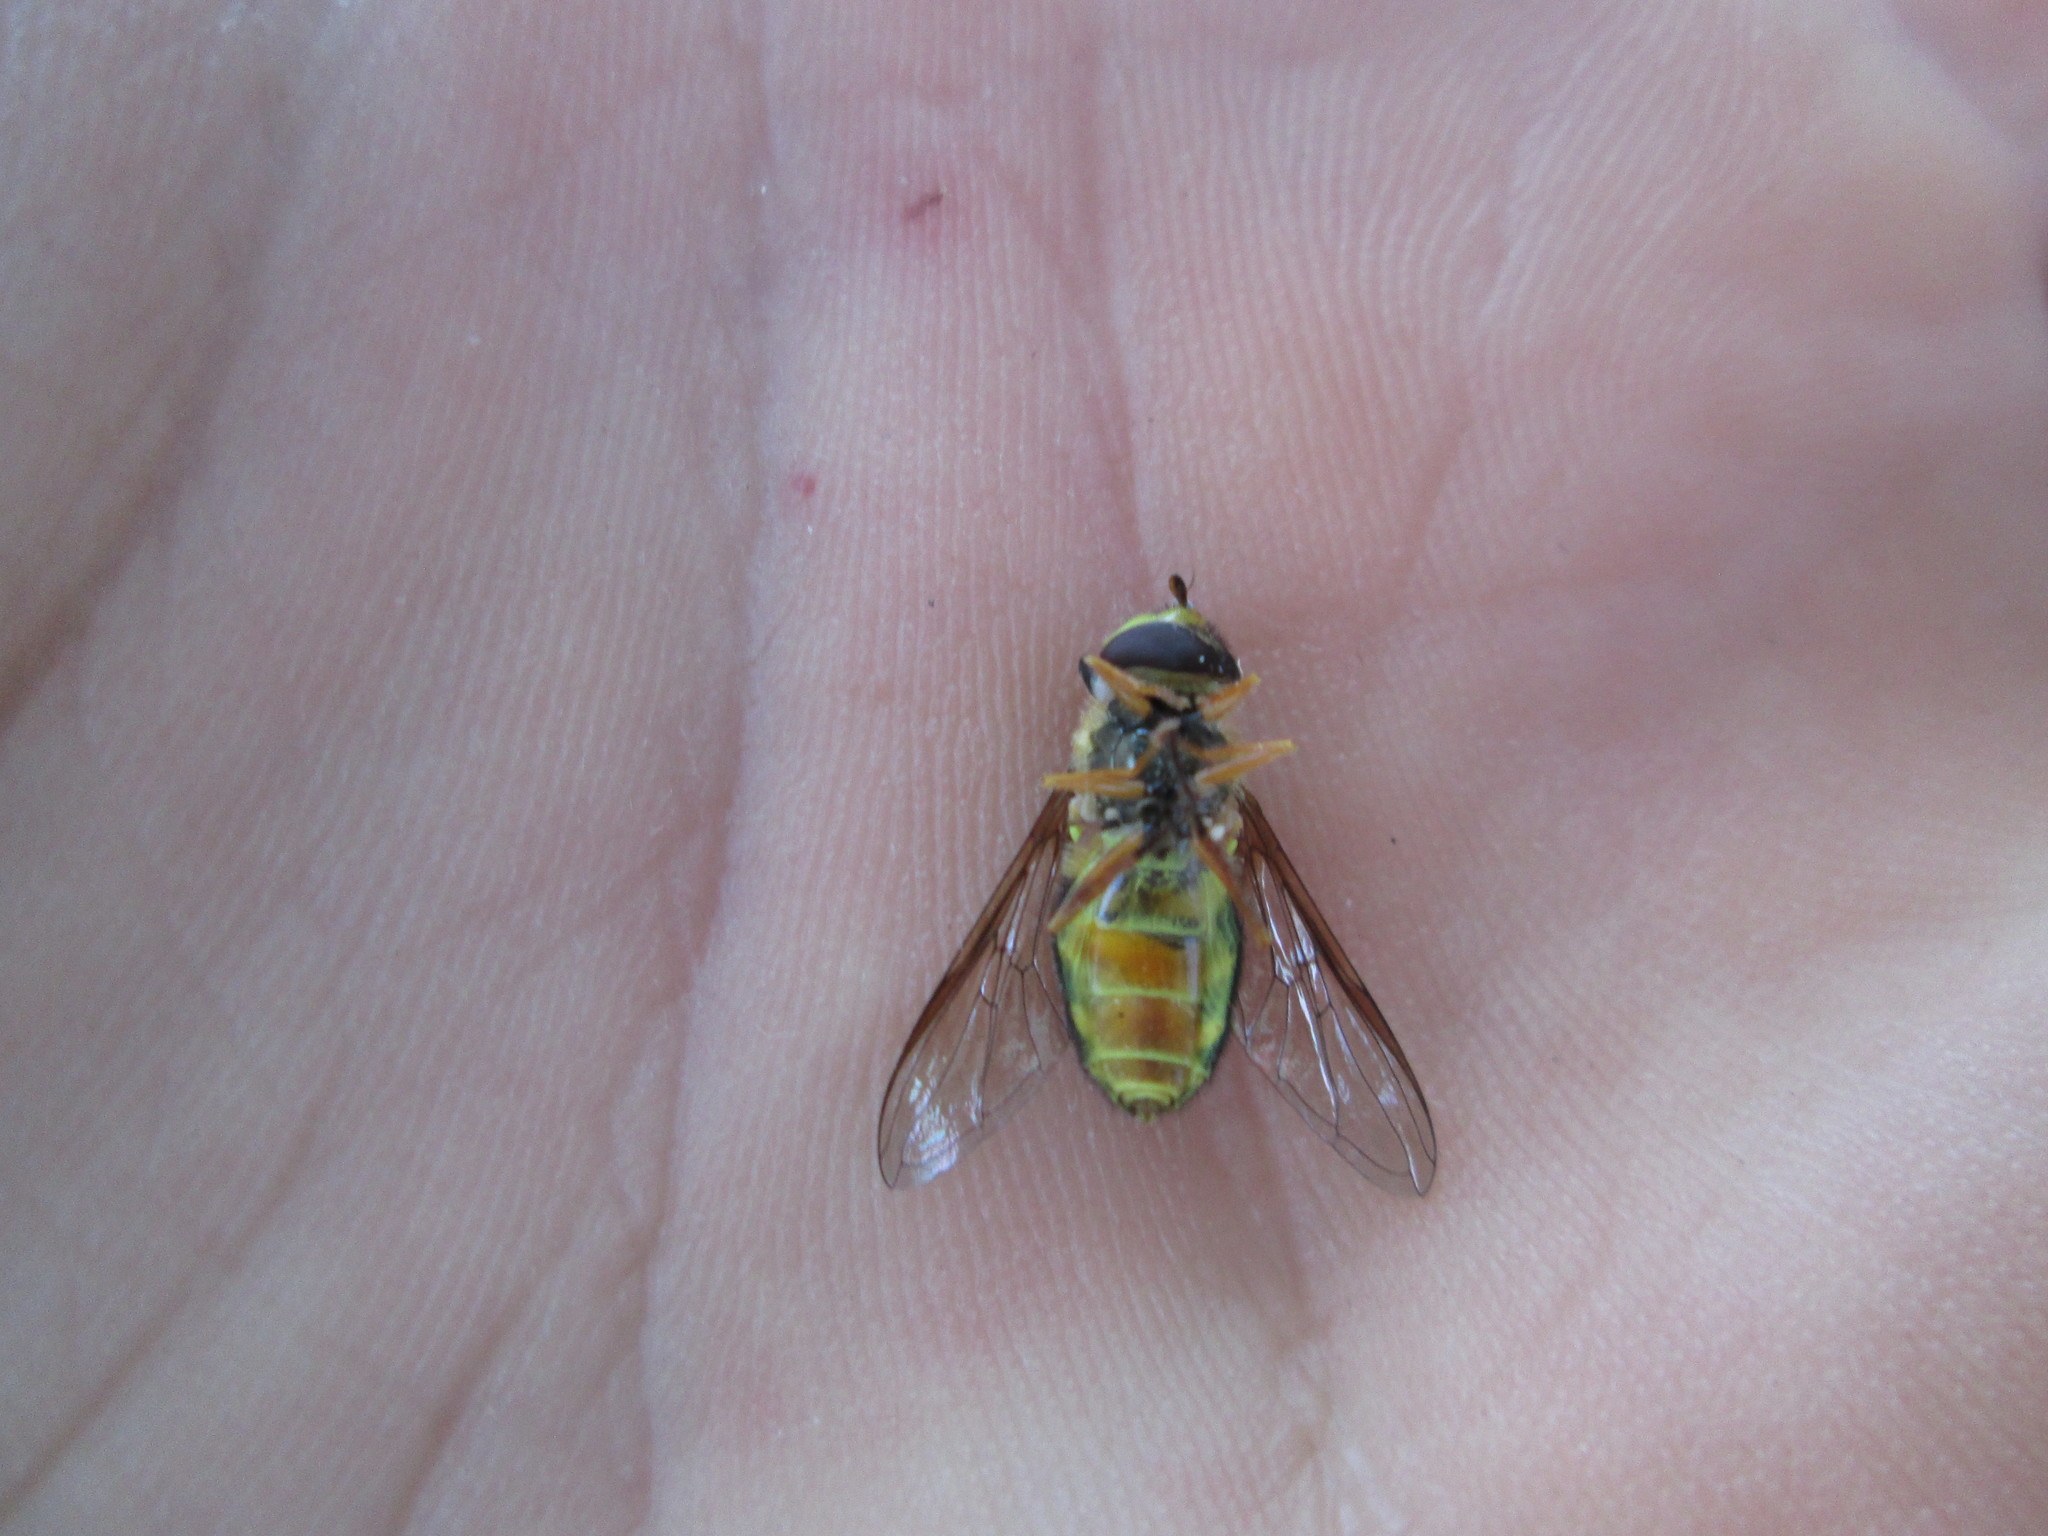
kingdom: Animalia
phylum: Arthropoda
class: Insecta
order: Diptera
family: Syrphidae
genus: Syrphus
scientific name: Syrphus opinator
